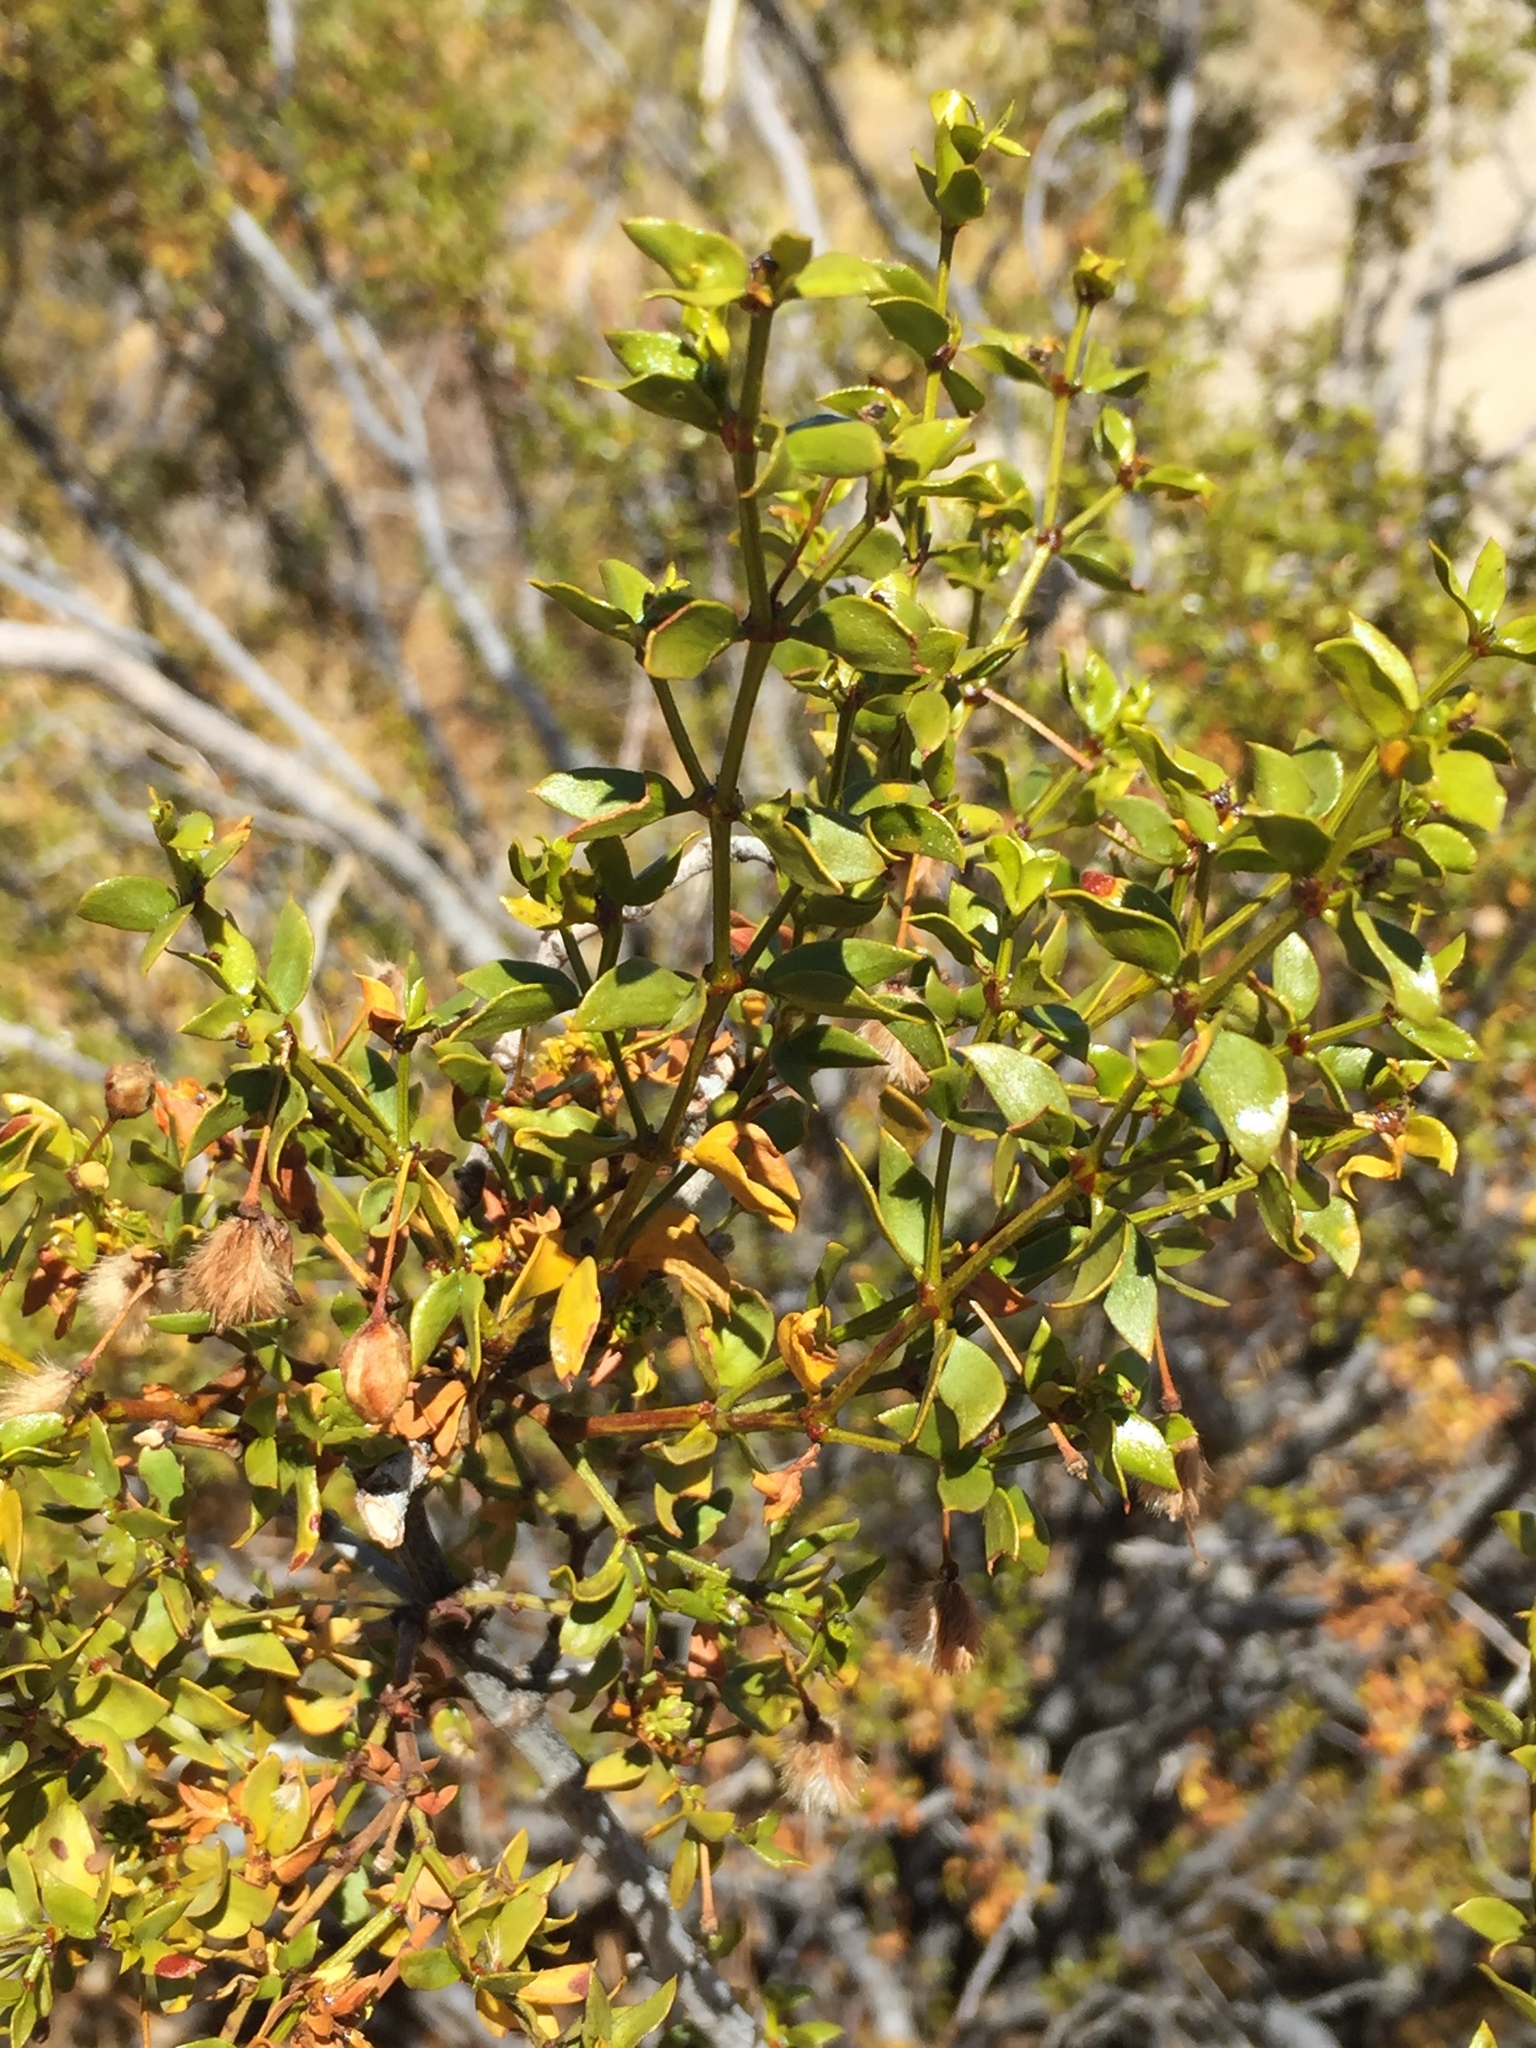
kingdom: Plantae
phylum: Tracheophyta
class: Magnoliopsida
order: Zygophyllales
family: Zygophyllaceae
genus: Larrea
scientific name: Larrea tridentata
